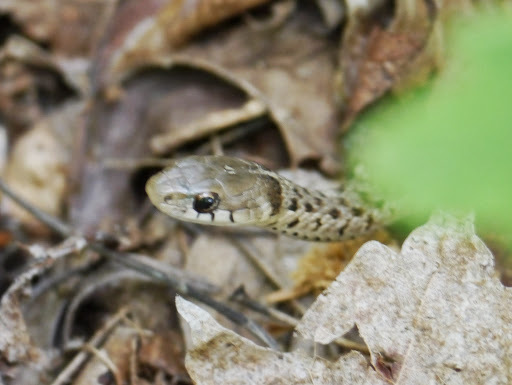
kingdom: Animalia
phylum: Chordata
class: Squamata
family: Colubridae
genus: Thamnophis
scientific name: Thamnophis sirtalis
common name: Common garter snake
